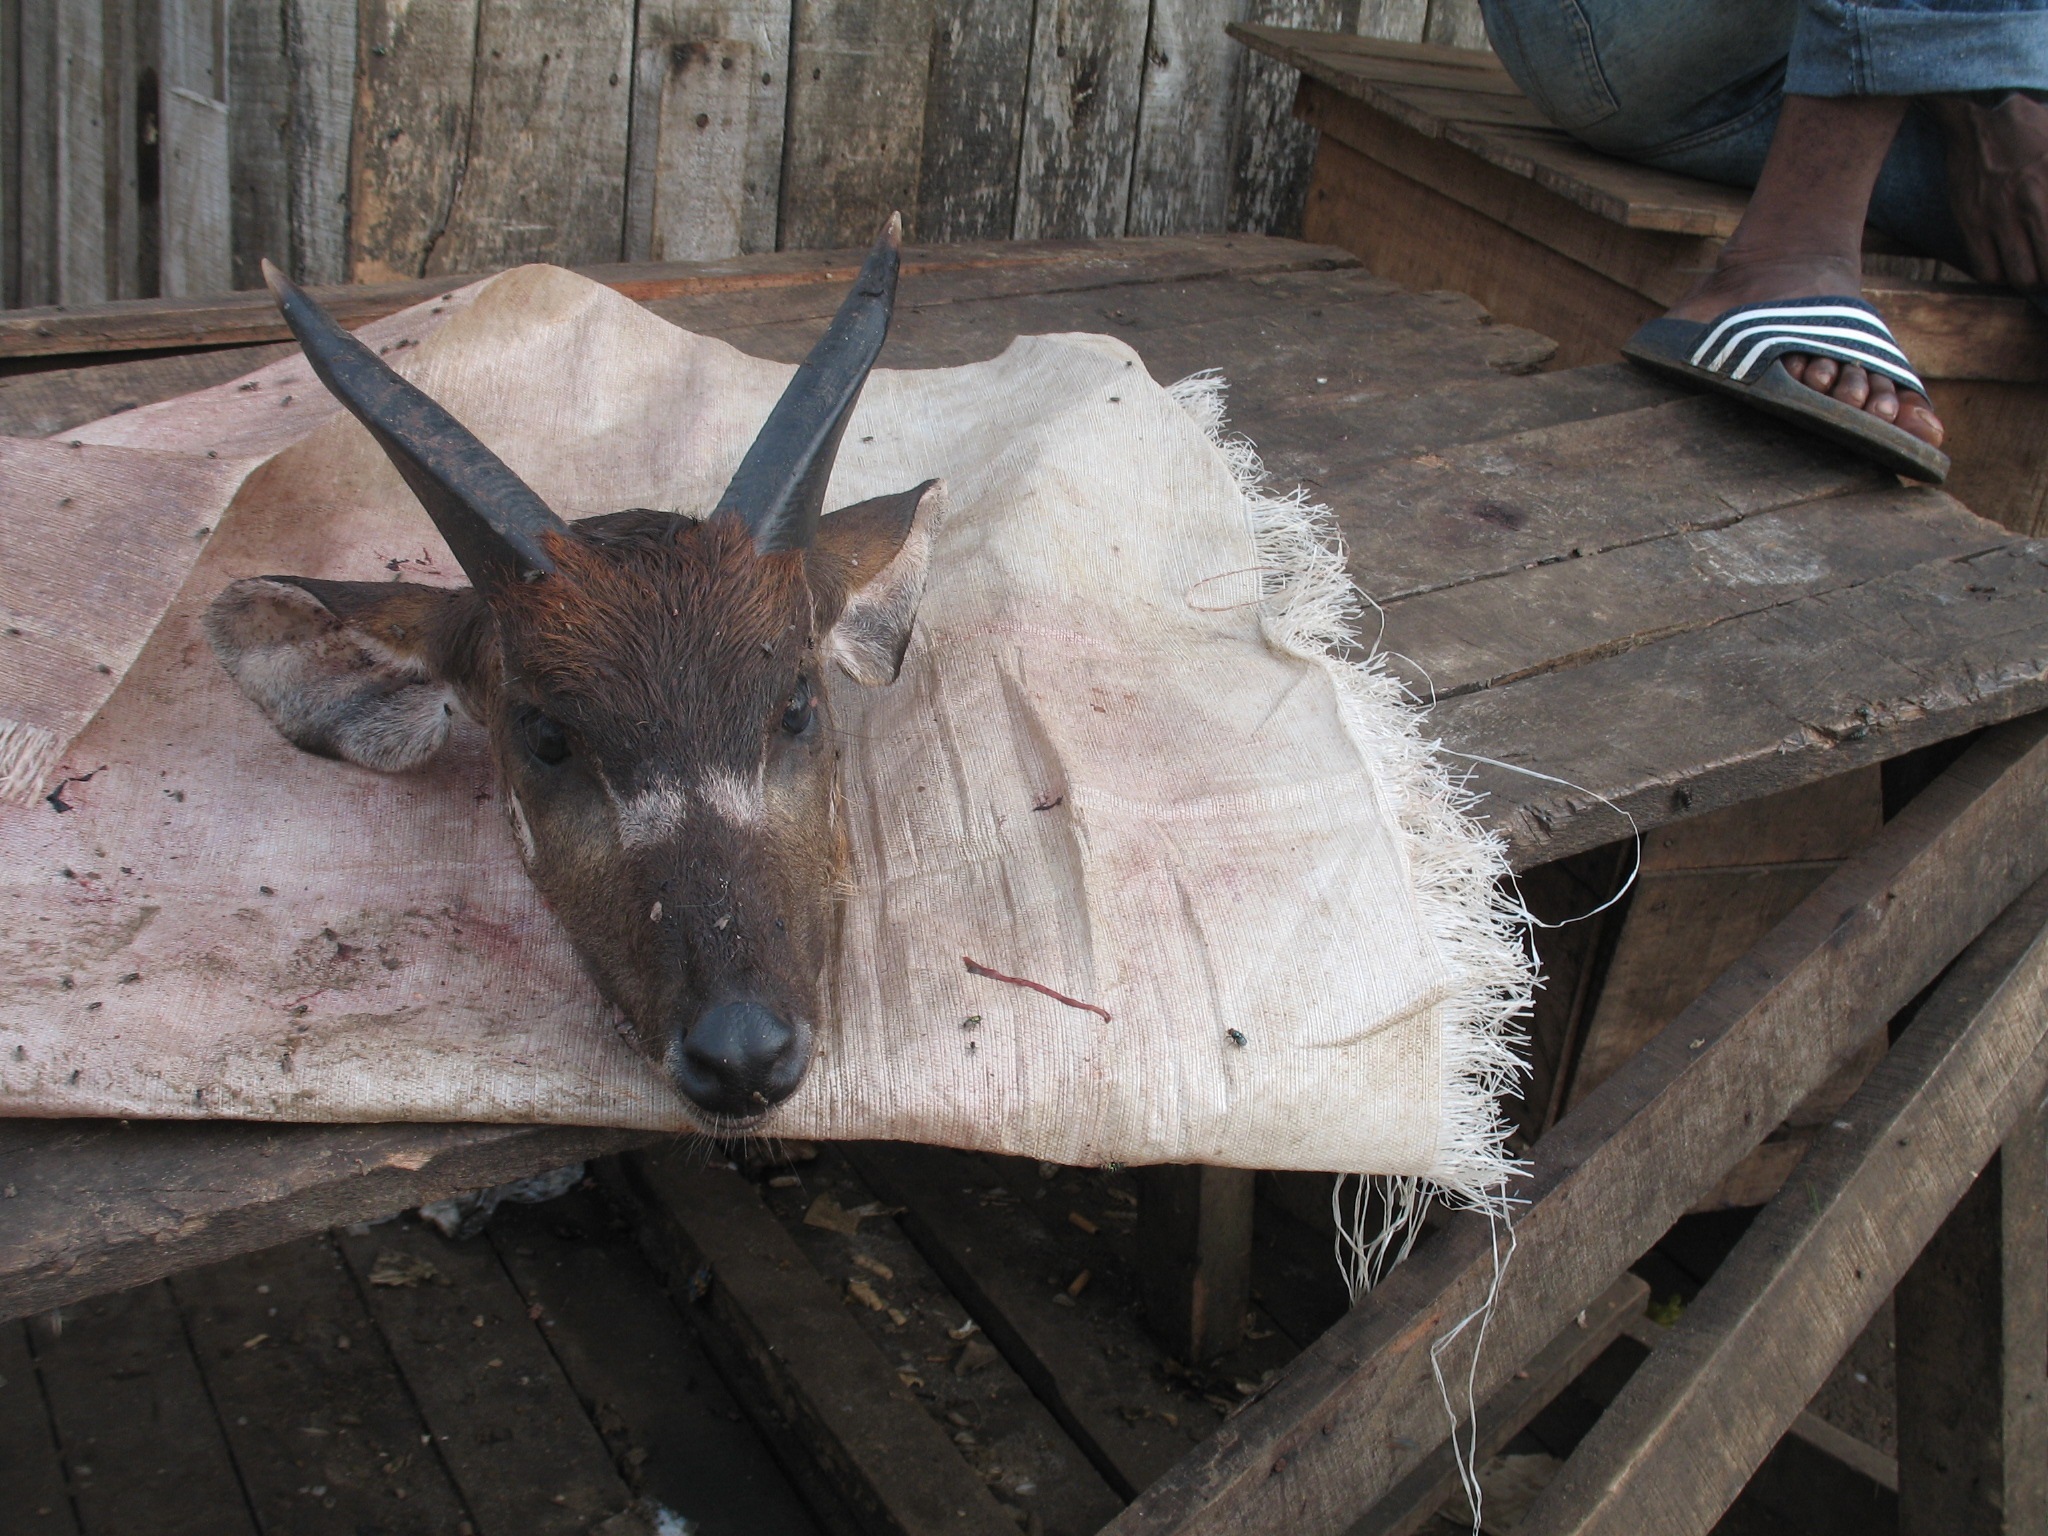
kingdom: Animalia
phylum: Chordata
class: Mammalia
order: Artiodactyla
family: Bovidae
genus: Tragelaphus
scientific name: Tragelaphus spekii
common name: Sitatunga
